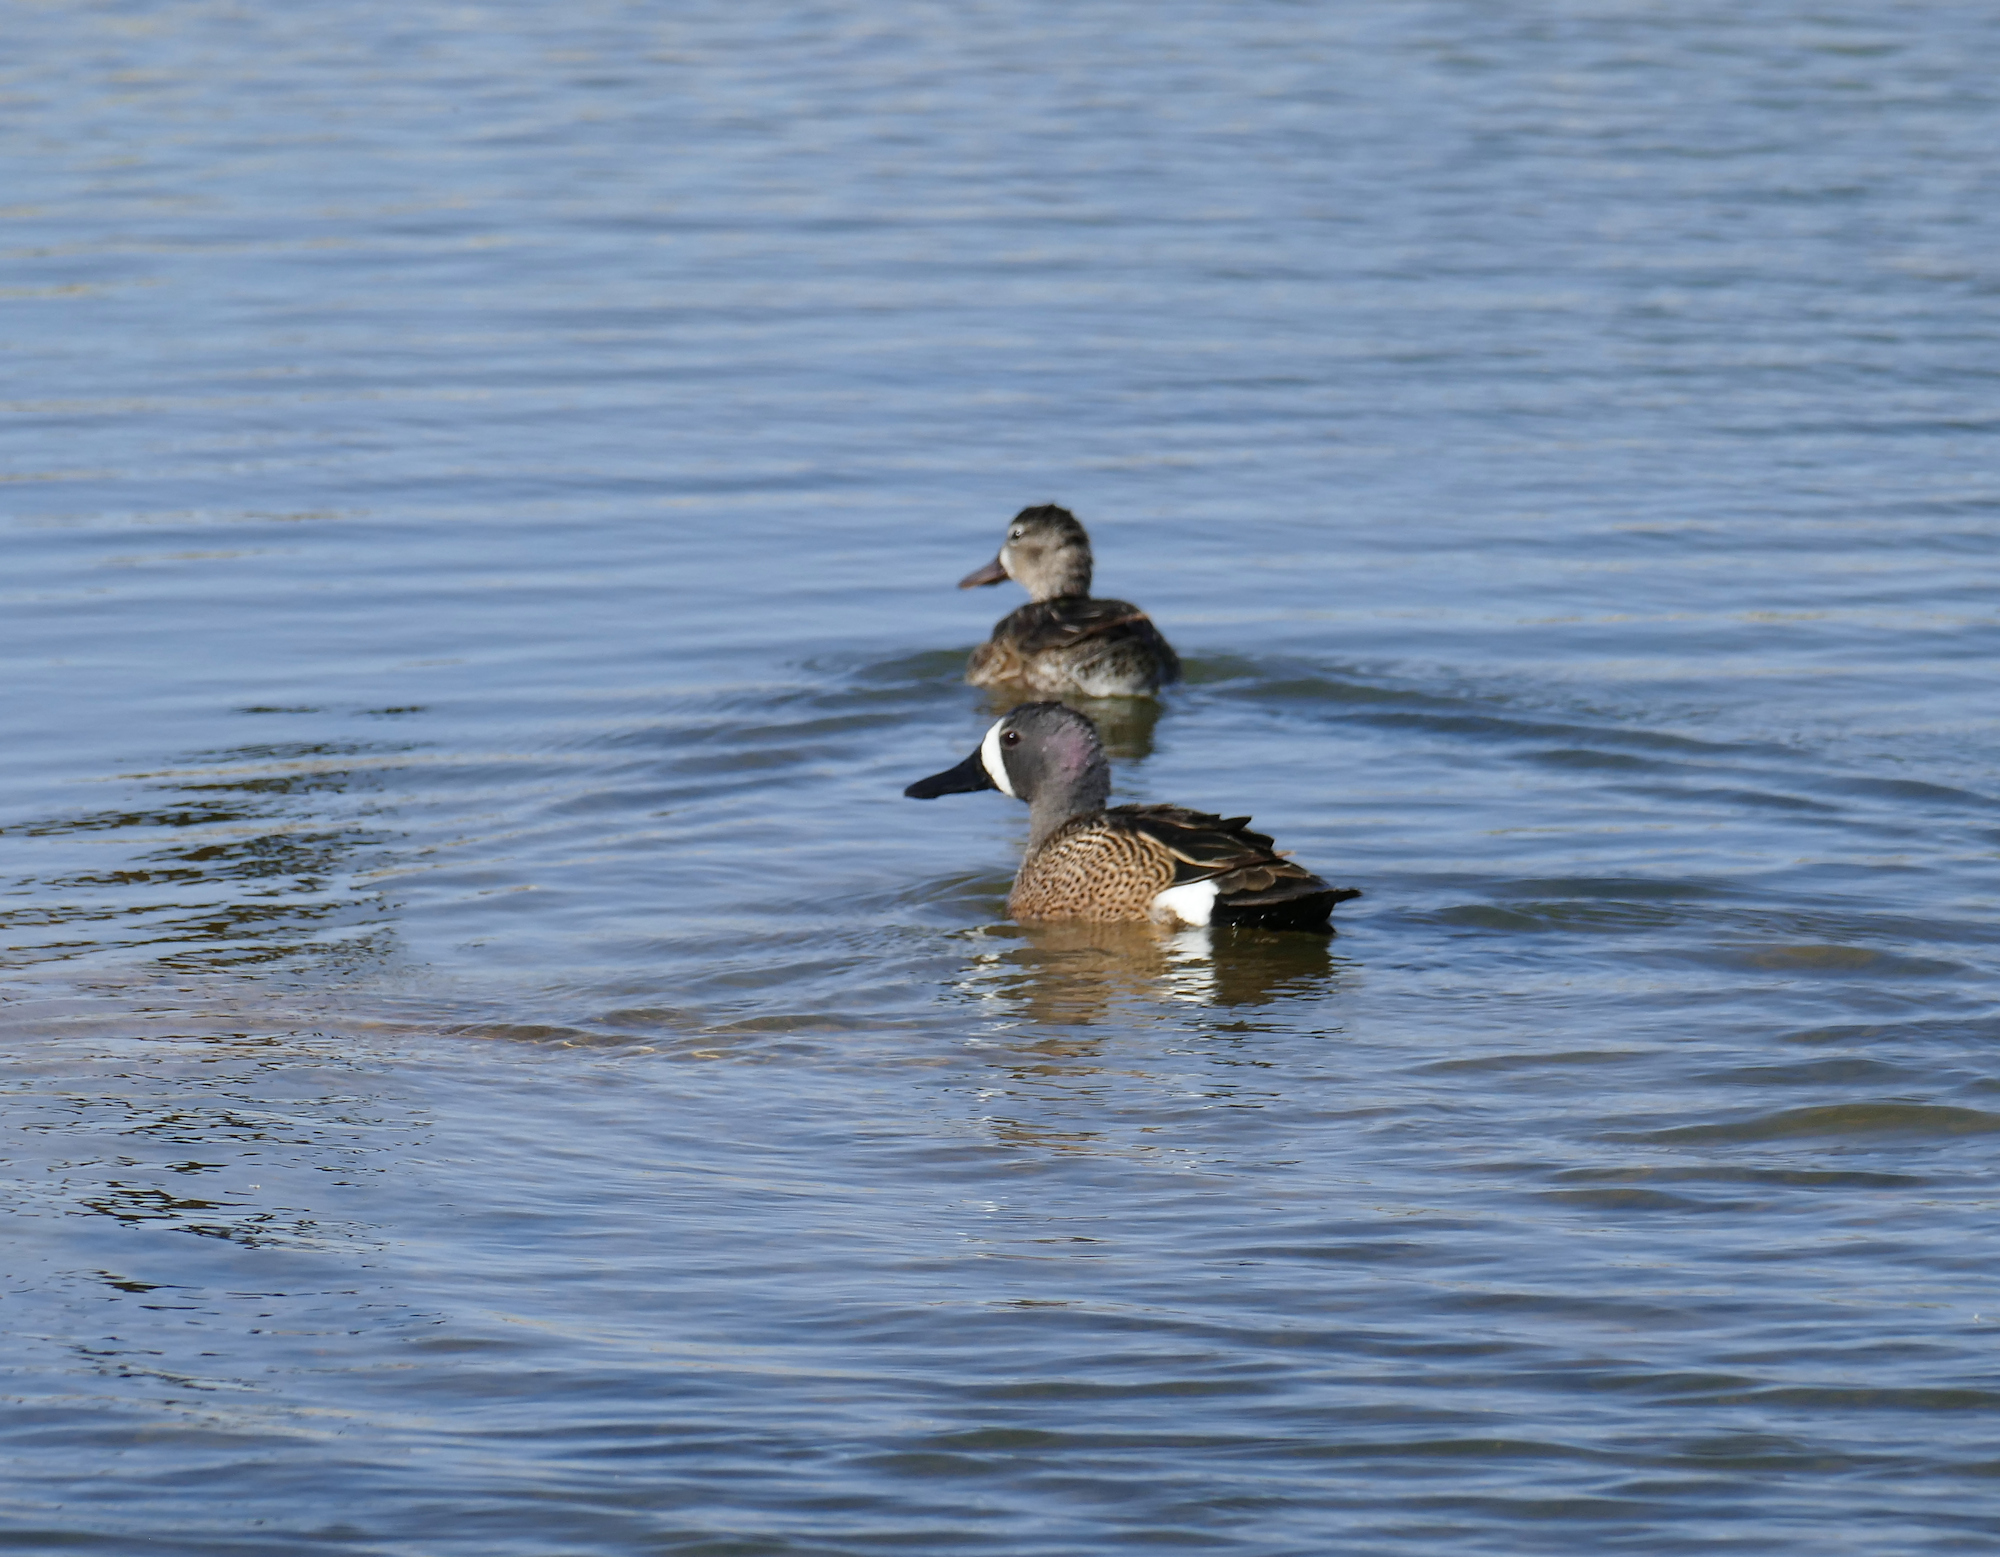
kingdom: Animalia
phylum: Chordata
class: Aves
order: Anseriformes
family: Anatidae
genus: Spatula
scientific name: Spatula discors
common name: Blue-winged teal
